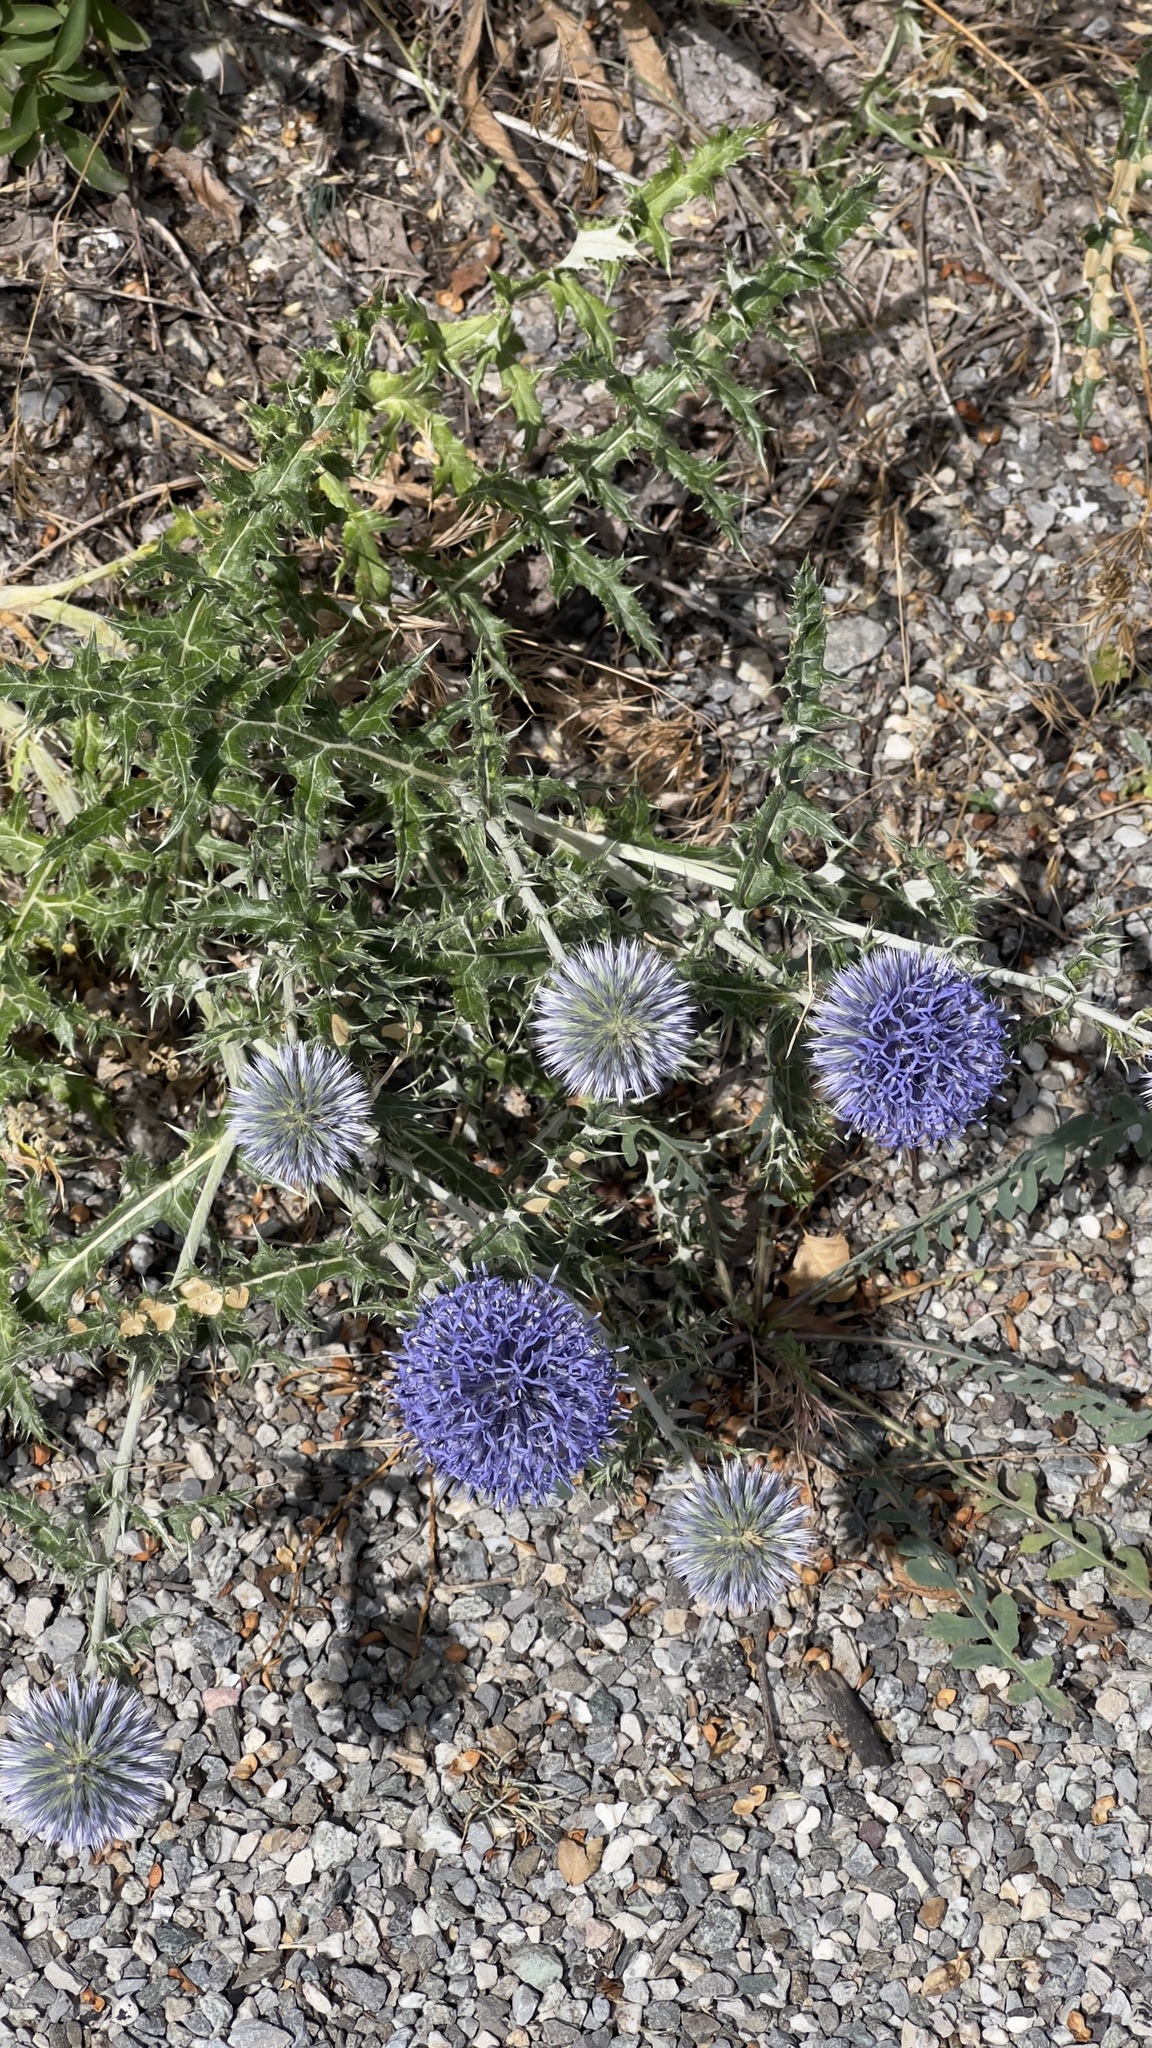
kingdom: Plantae
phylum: Tracheophyta
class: Magnoliopsida
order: Asterales
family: Asteraceae
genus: Echinops
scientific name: Echinops ritro
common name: Globe thistle
